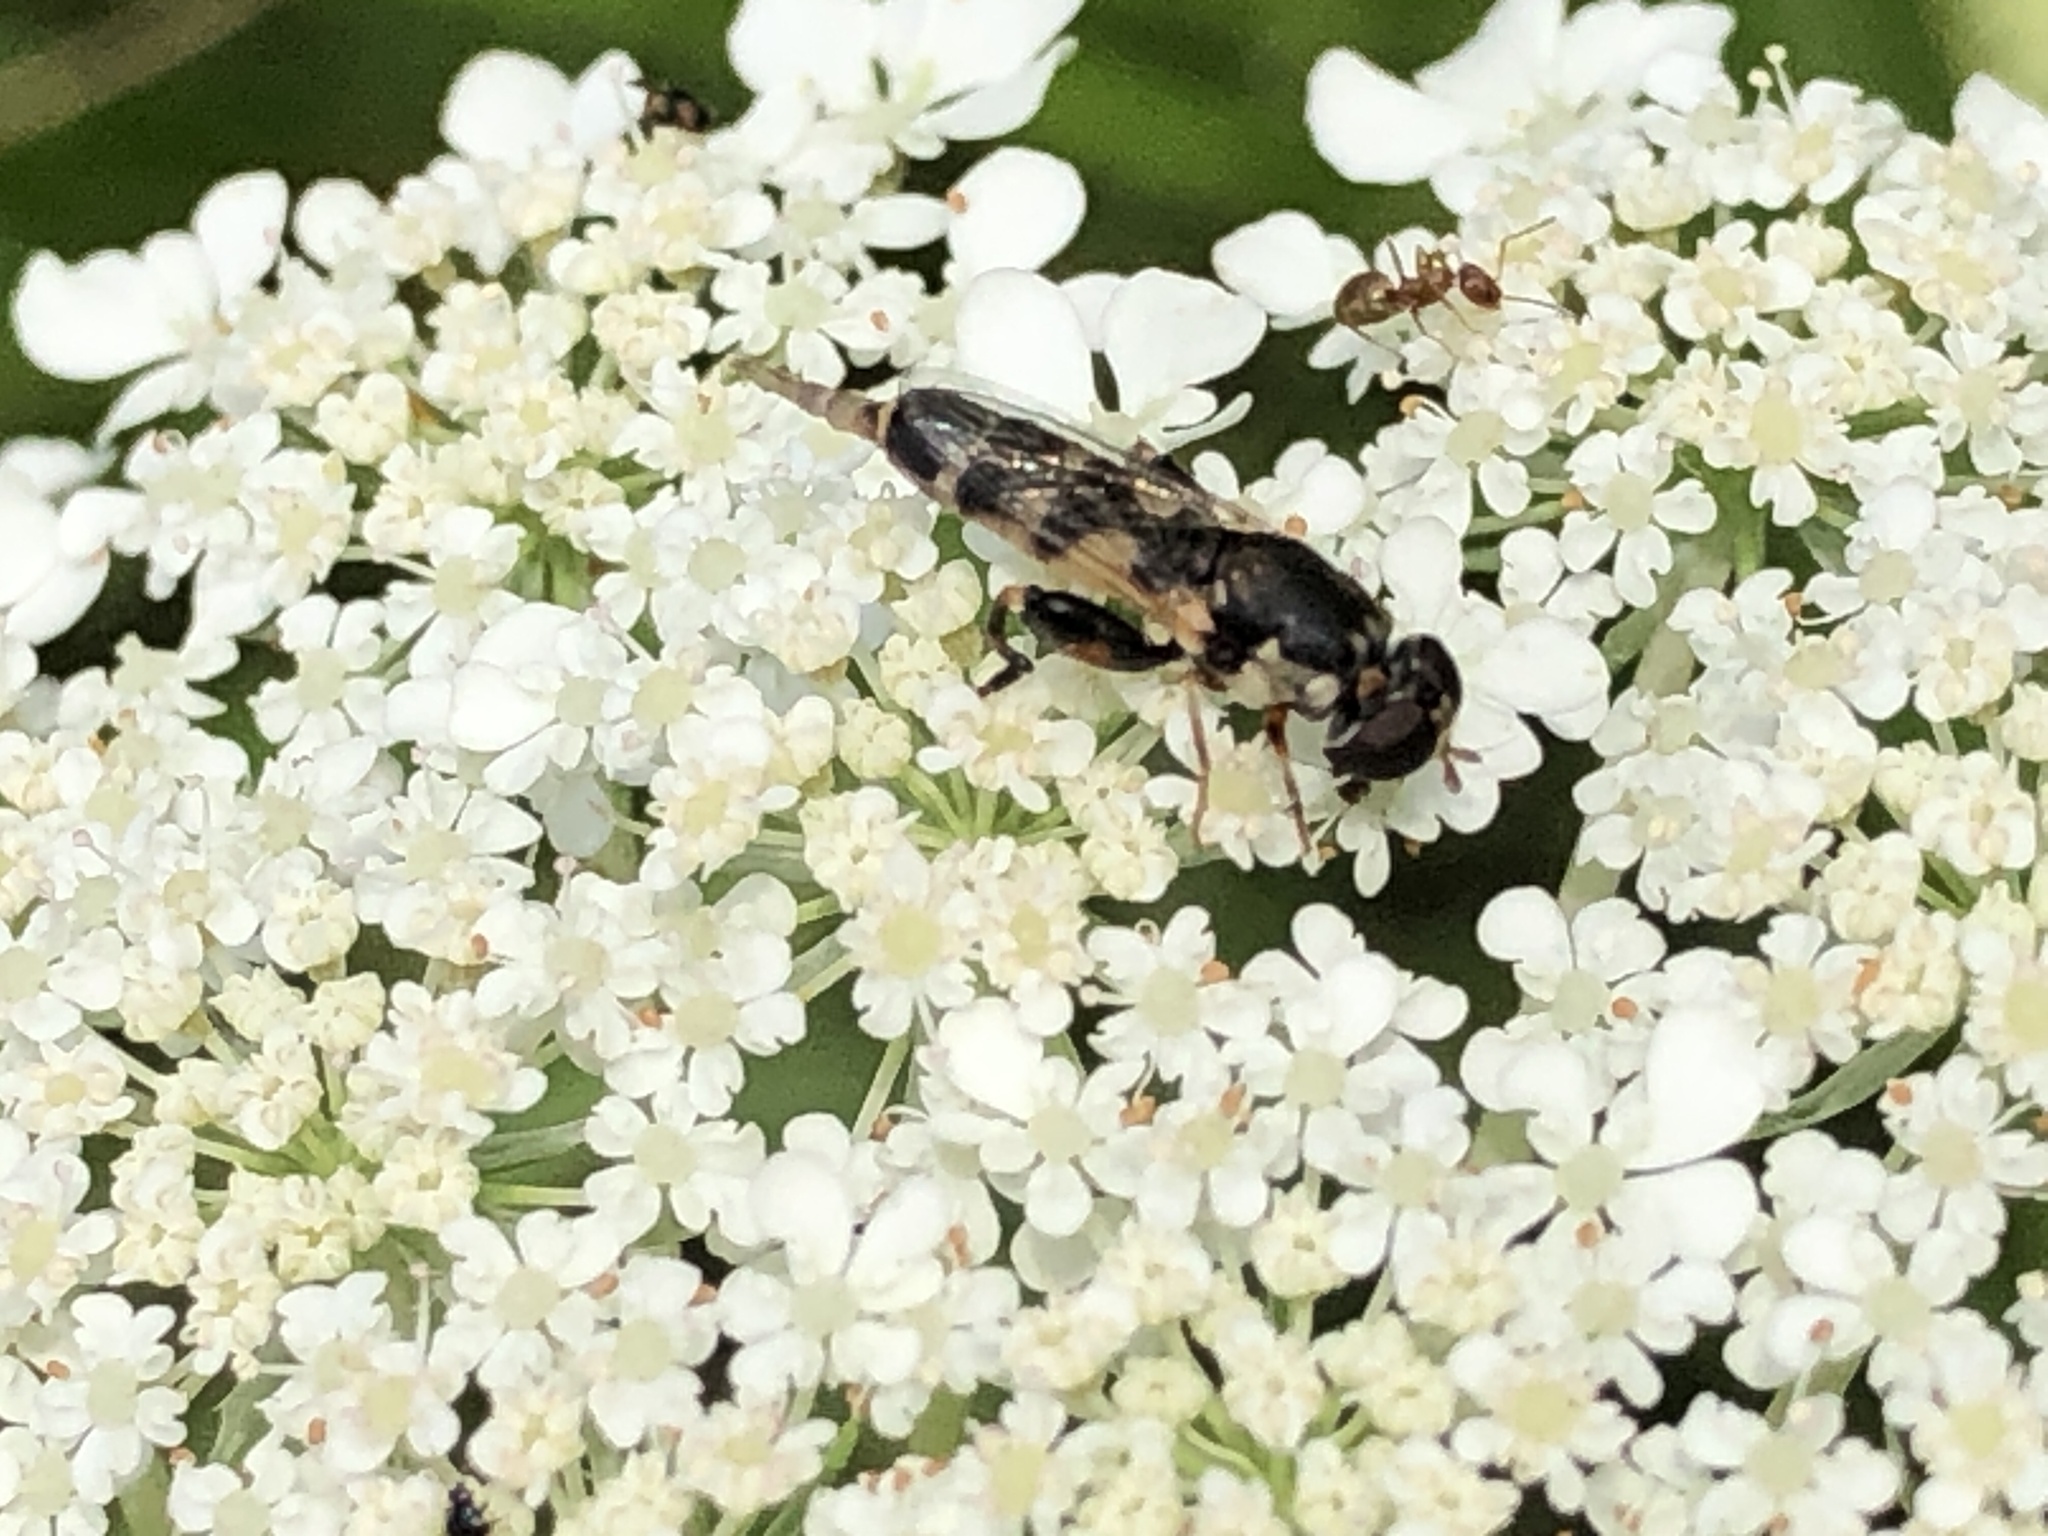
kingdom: Animalia
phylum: Arthropoda
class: Insecta
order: Diptera
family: Syrphidae
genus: Syritta
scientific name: Syritta pipiens
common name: Hover fly
